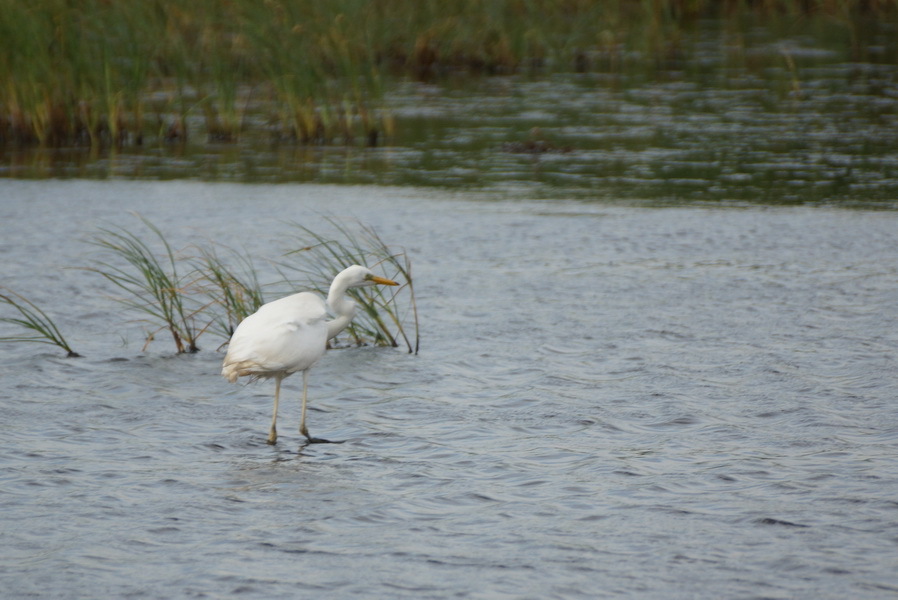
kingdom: Animalia
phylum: Chordata
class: Aves
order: Pelecaniformes
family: Ardeidae
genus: Ardea
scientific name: Ardea alba
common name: Great egret
